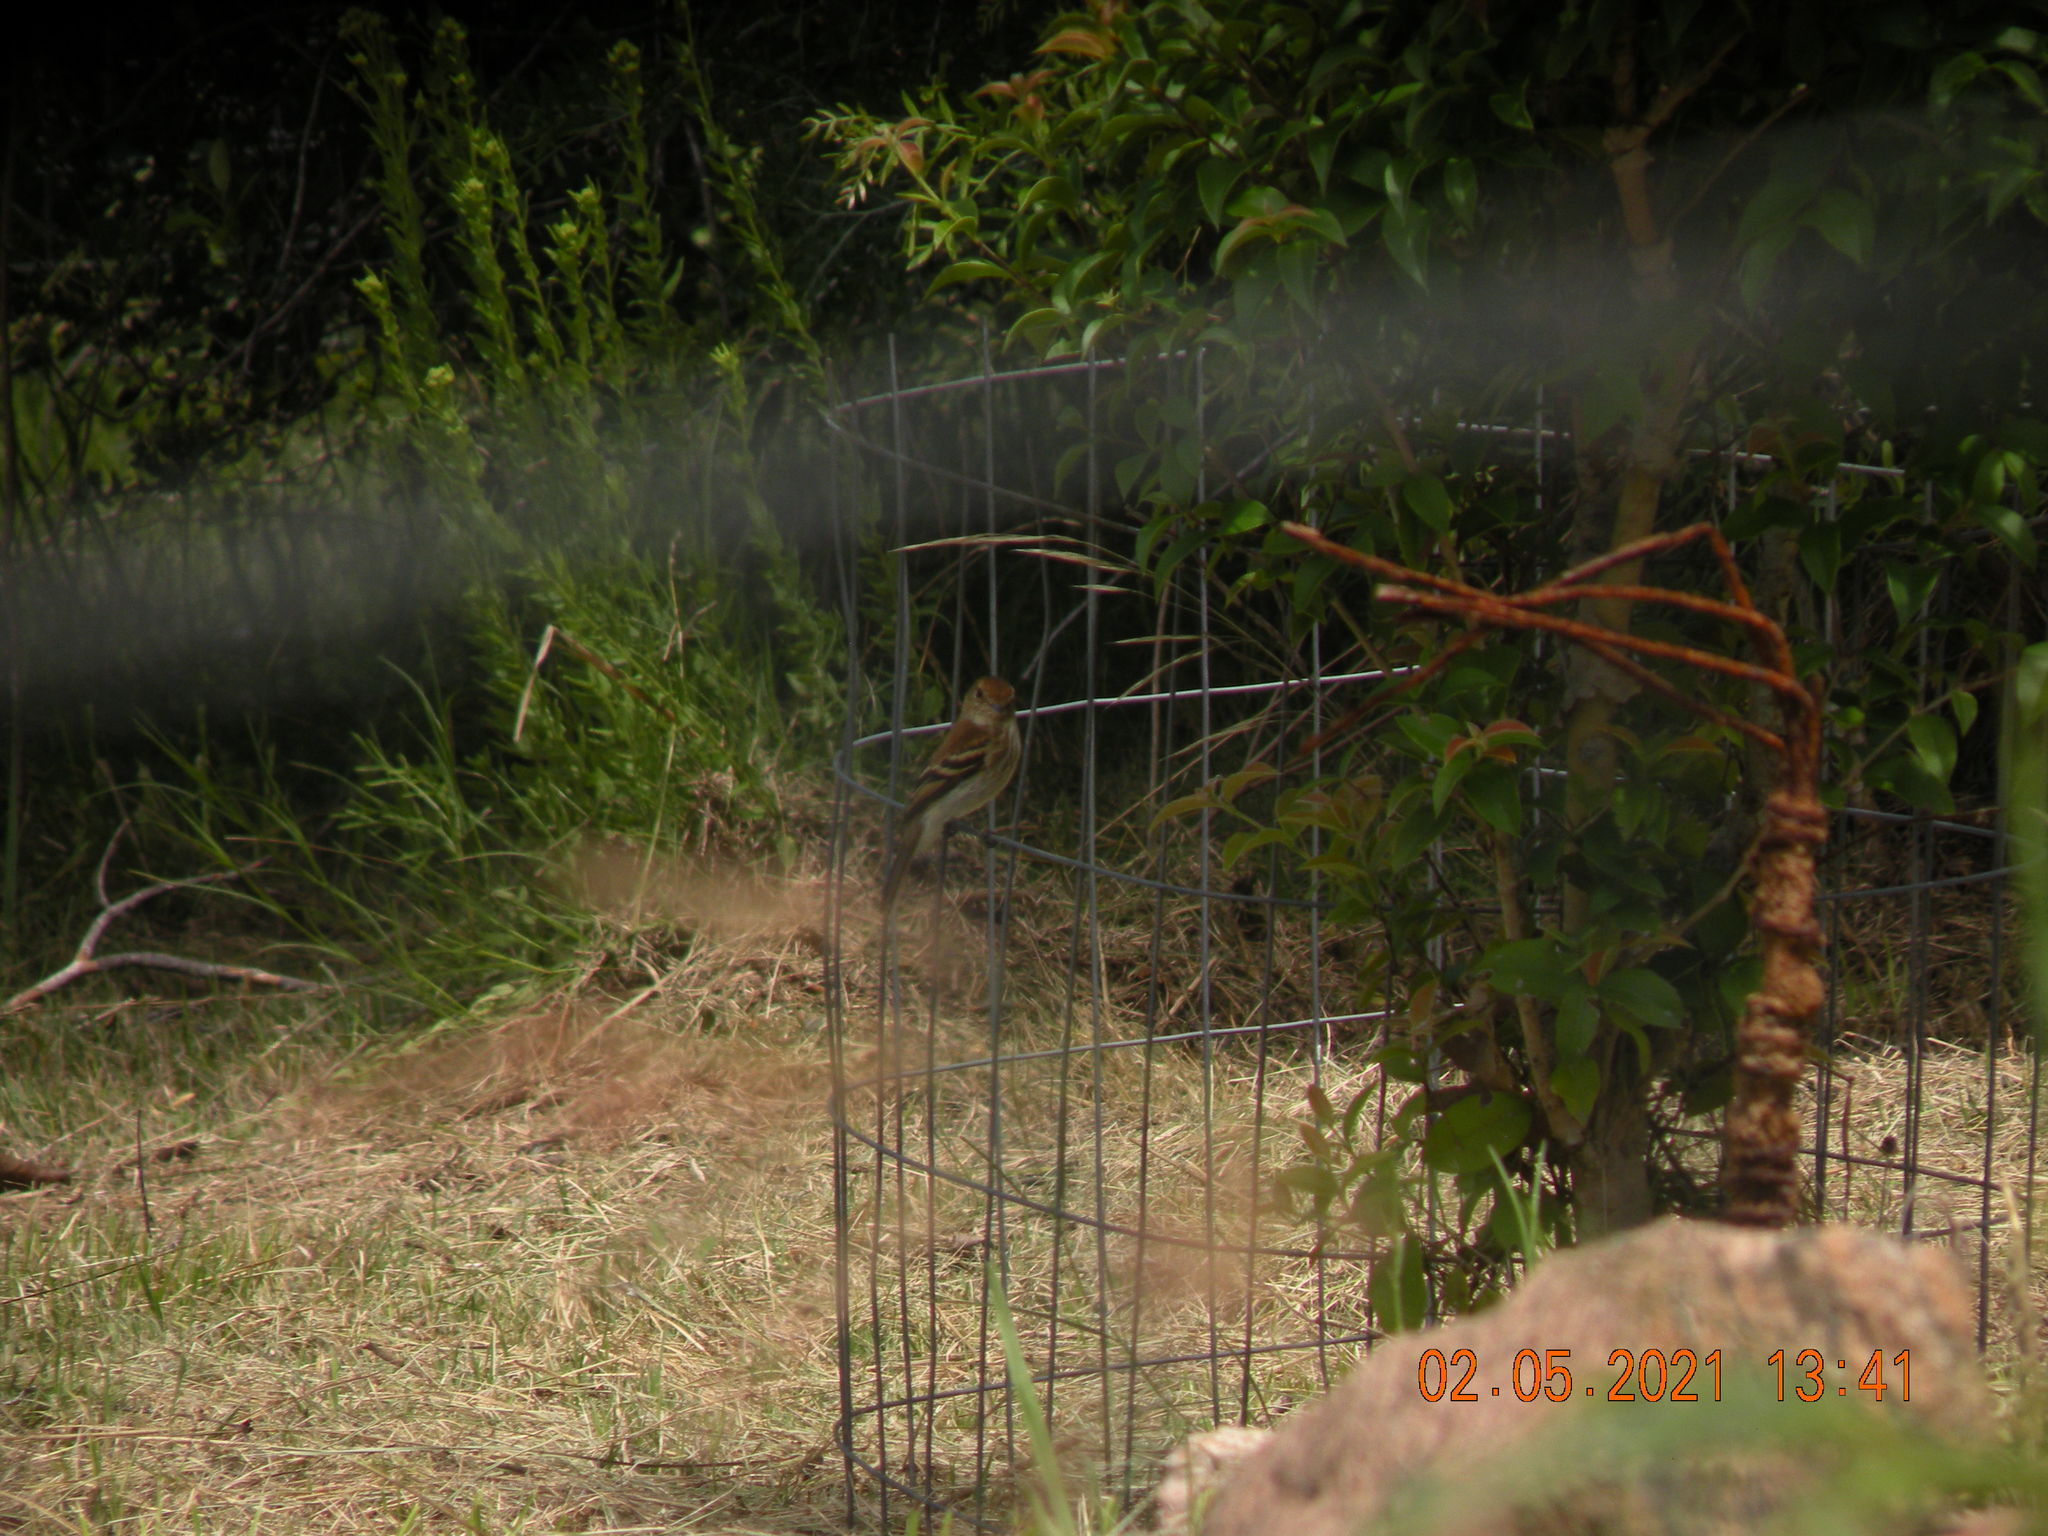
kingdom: Animalia
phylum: Chordata
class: Aves
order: Passeriformes
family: Tyrannidae
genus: Myiophobus
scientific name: Myiophobus fasciatus
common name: Bran-colored flycatcher
